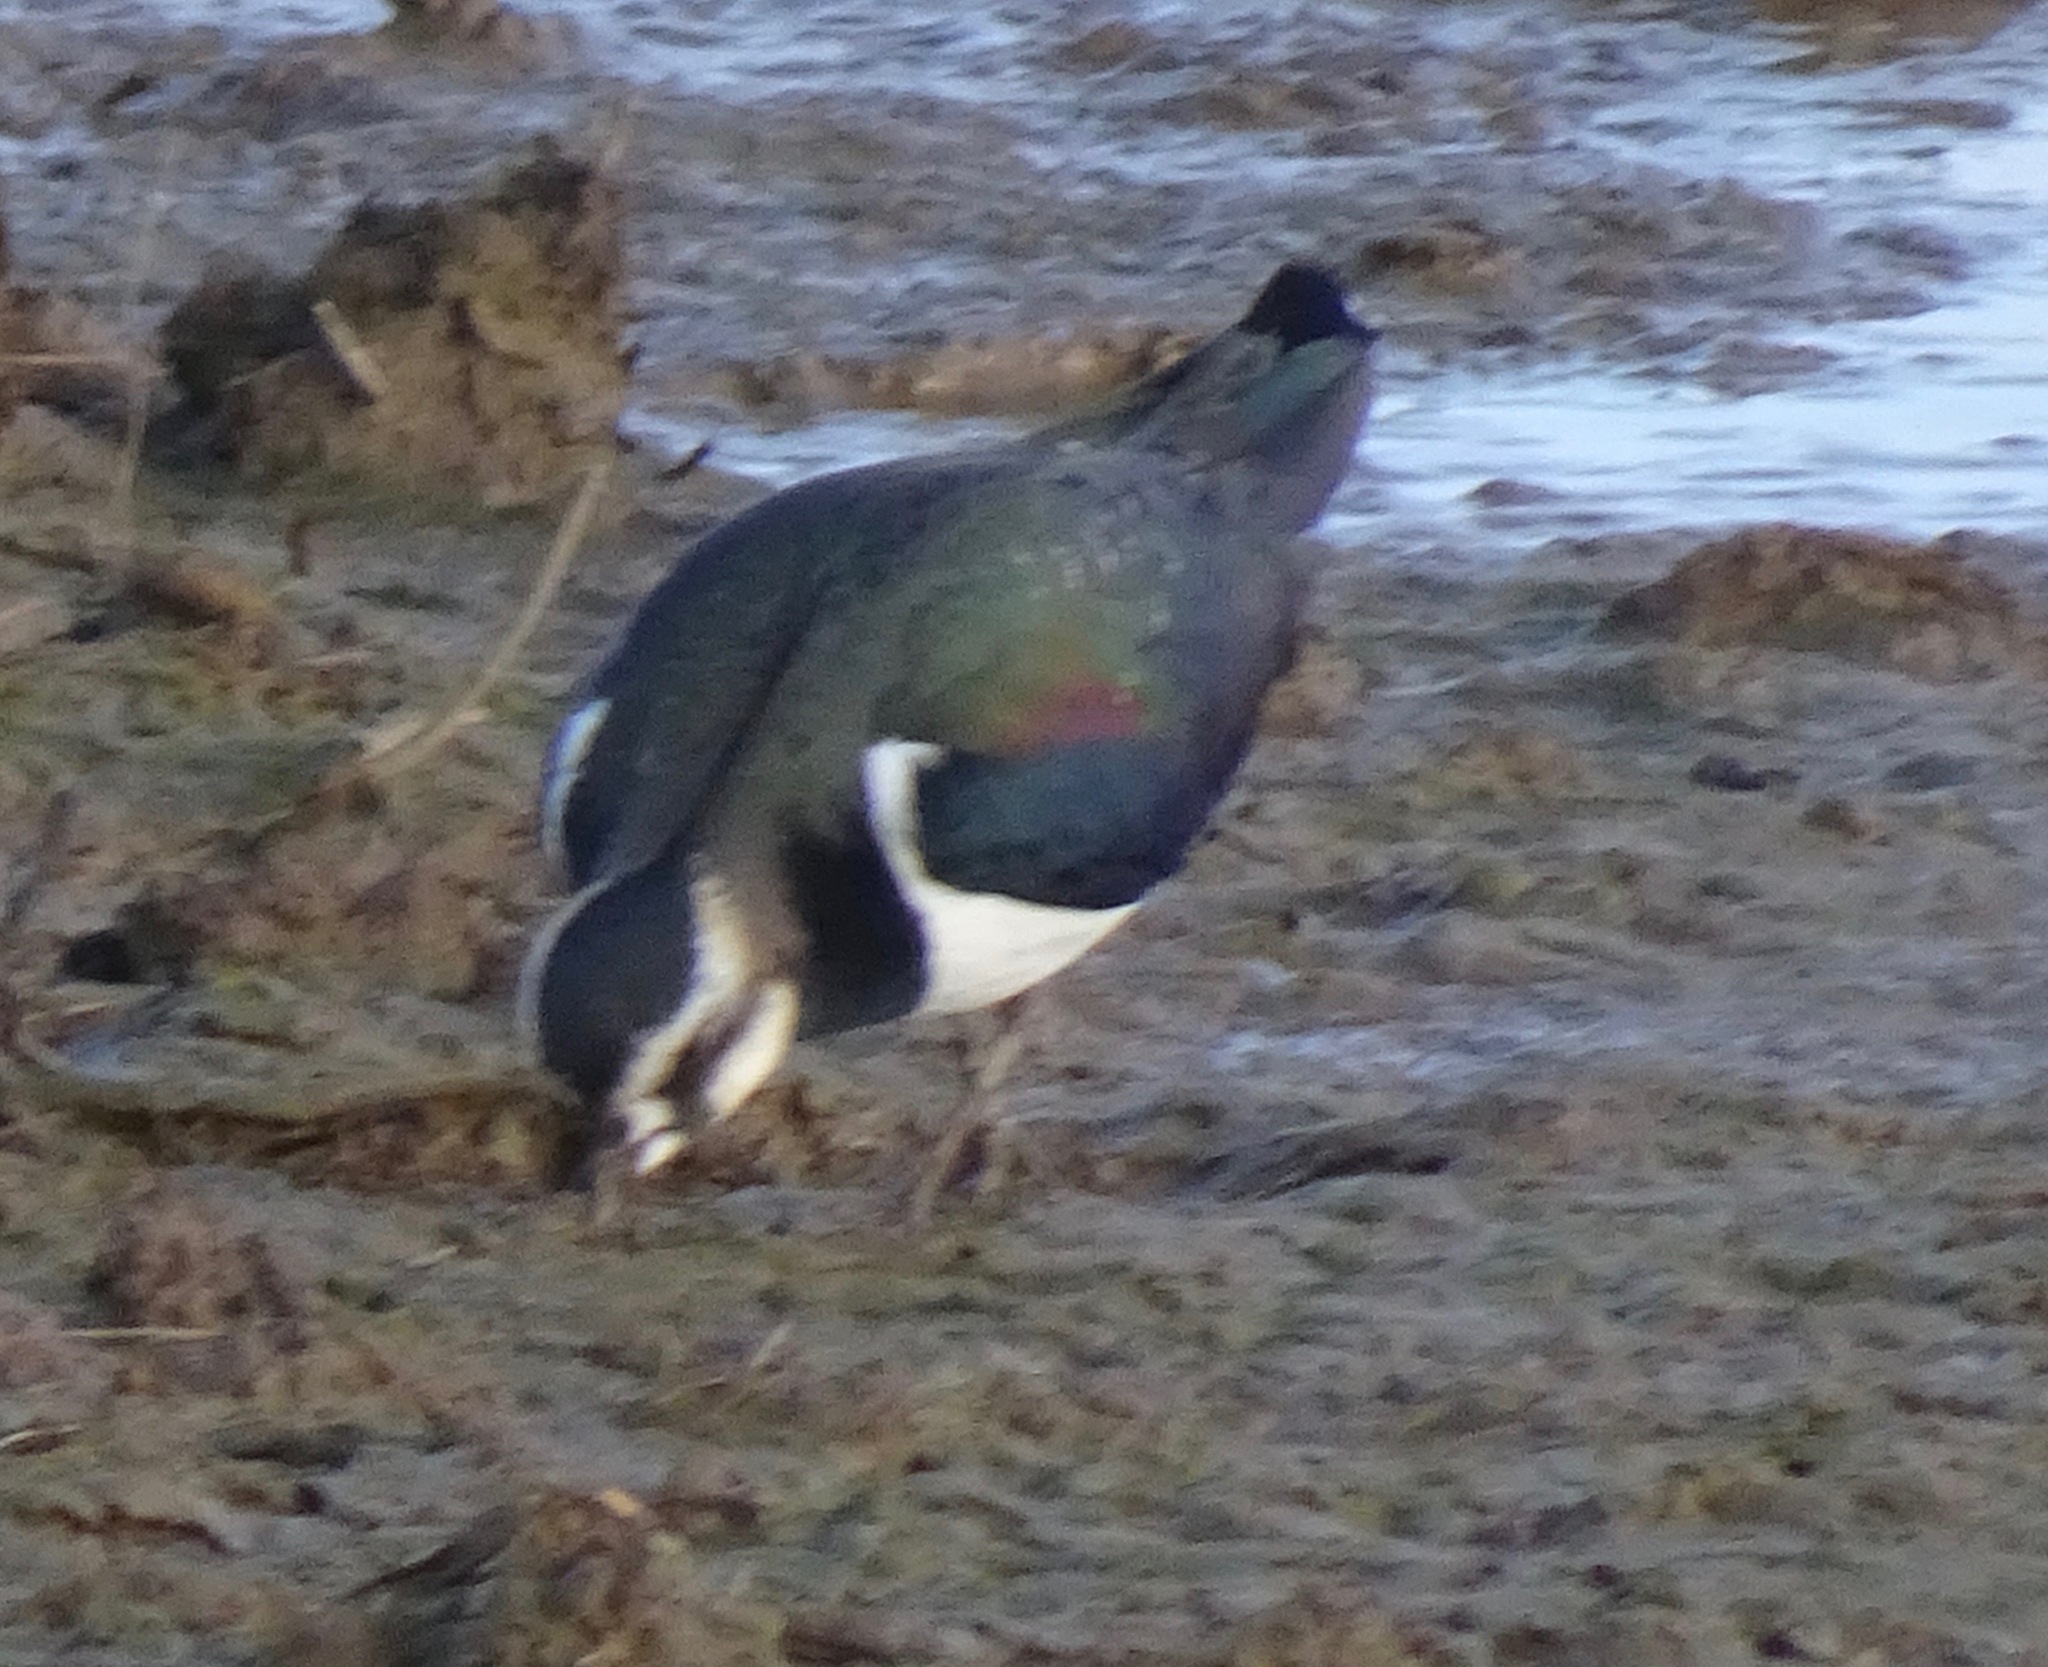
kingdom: Animalia
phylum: Chordata
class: Aves
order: Charadriiformes
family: Charadriidae
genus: Vanellus
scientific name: Vanellus vanellus
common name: Northern lapwing
